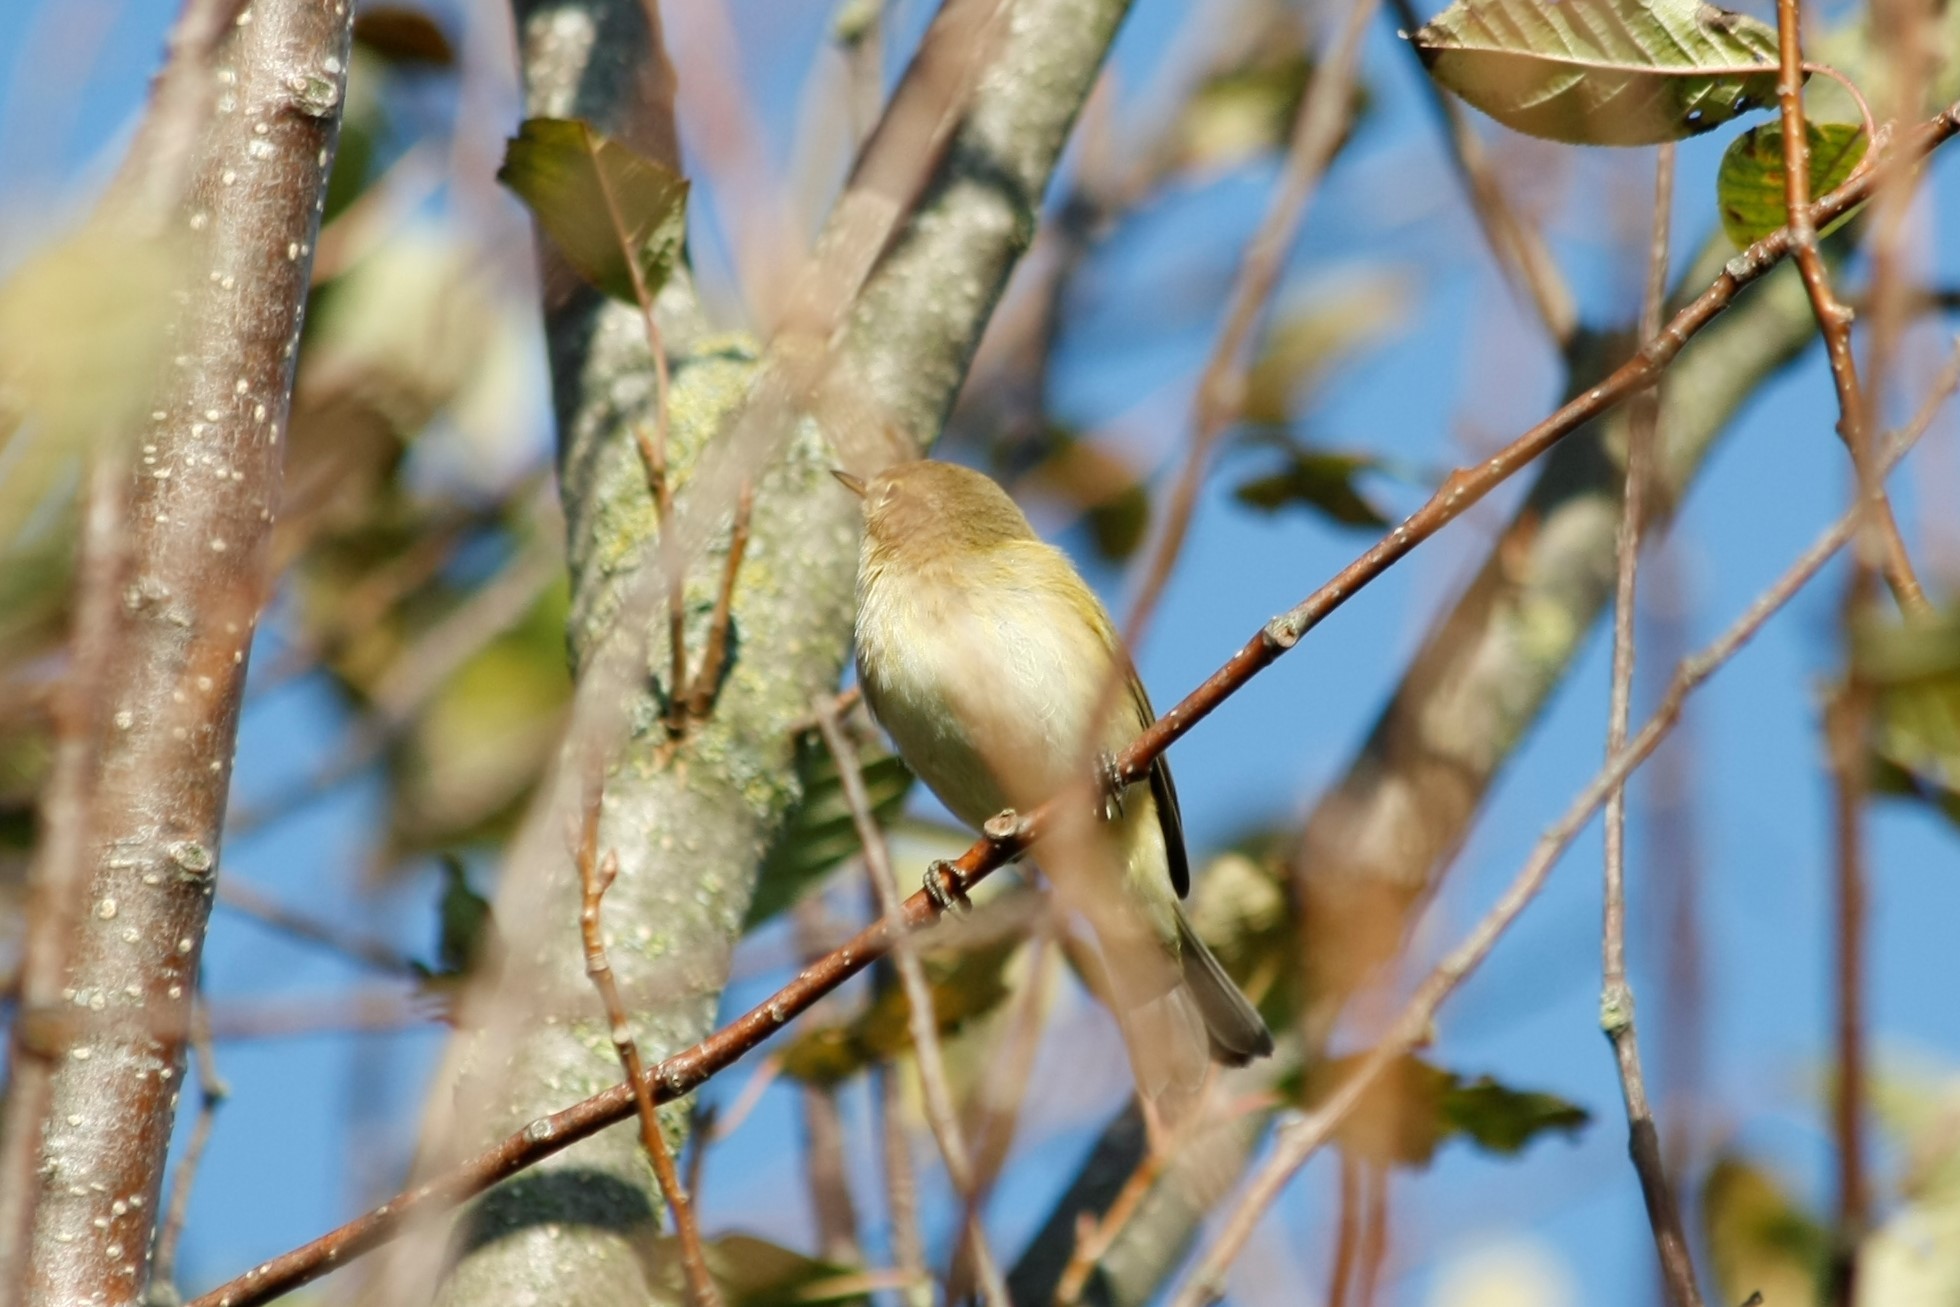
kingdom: Animalia
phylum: Chordata
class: Aves
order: Passeriformes
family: Phylloscopidae
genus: Phylloscopus
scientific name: Phylloscopus collybita
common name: Common chiffchaff
